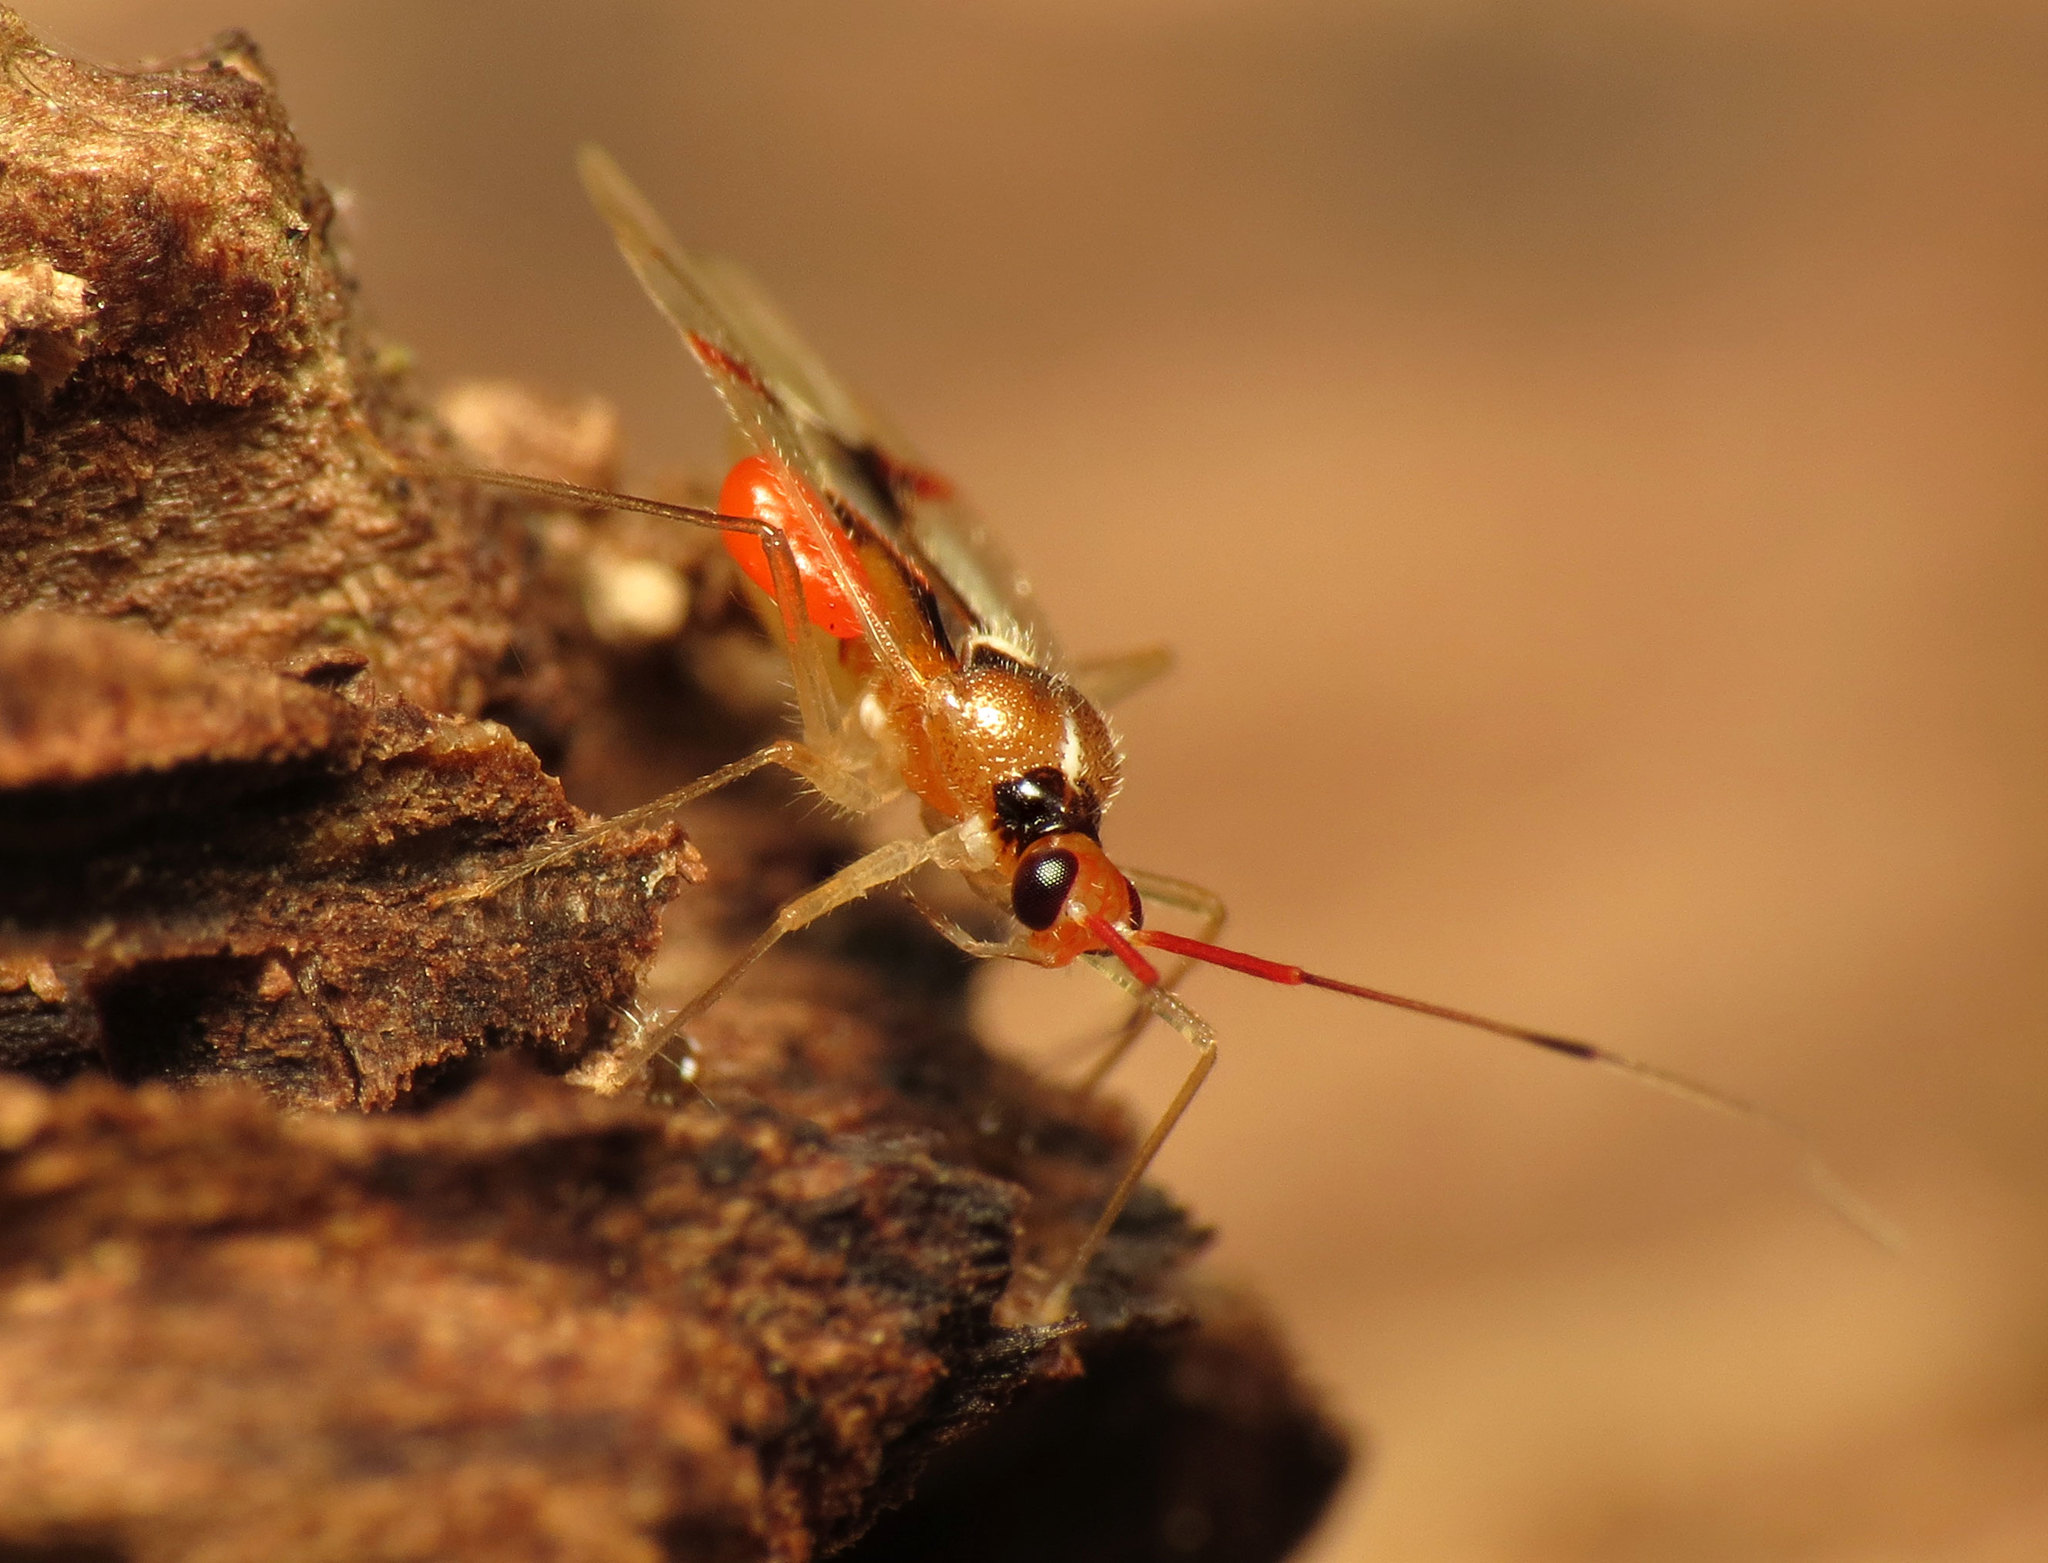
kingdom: Animalia
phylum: Arthropoda
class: Insecta
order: Hemiptera
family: Miridae
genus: Hyaliodes
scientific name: Hyaliodes harti
